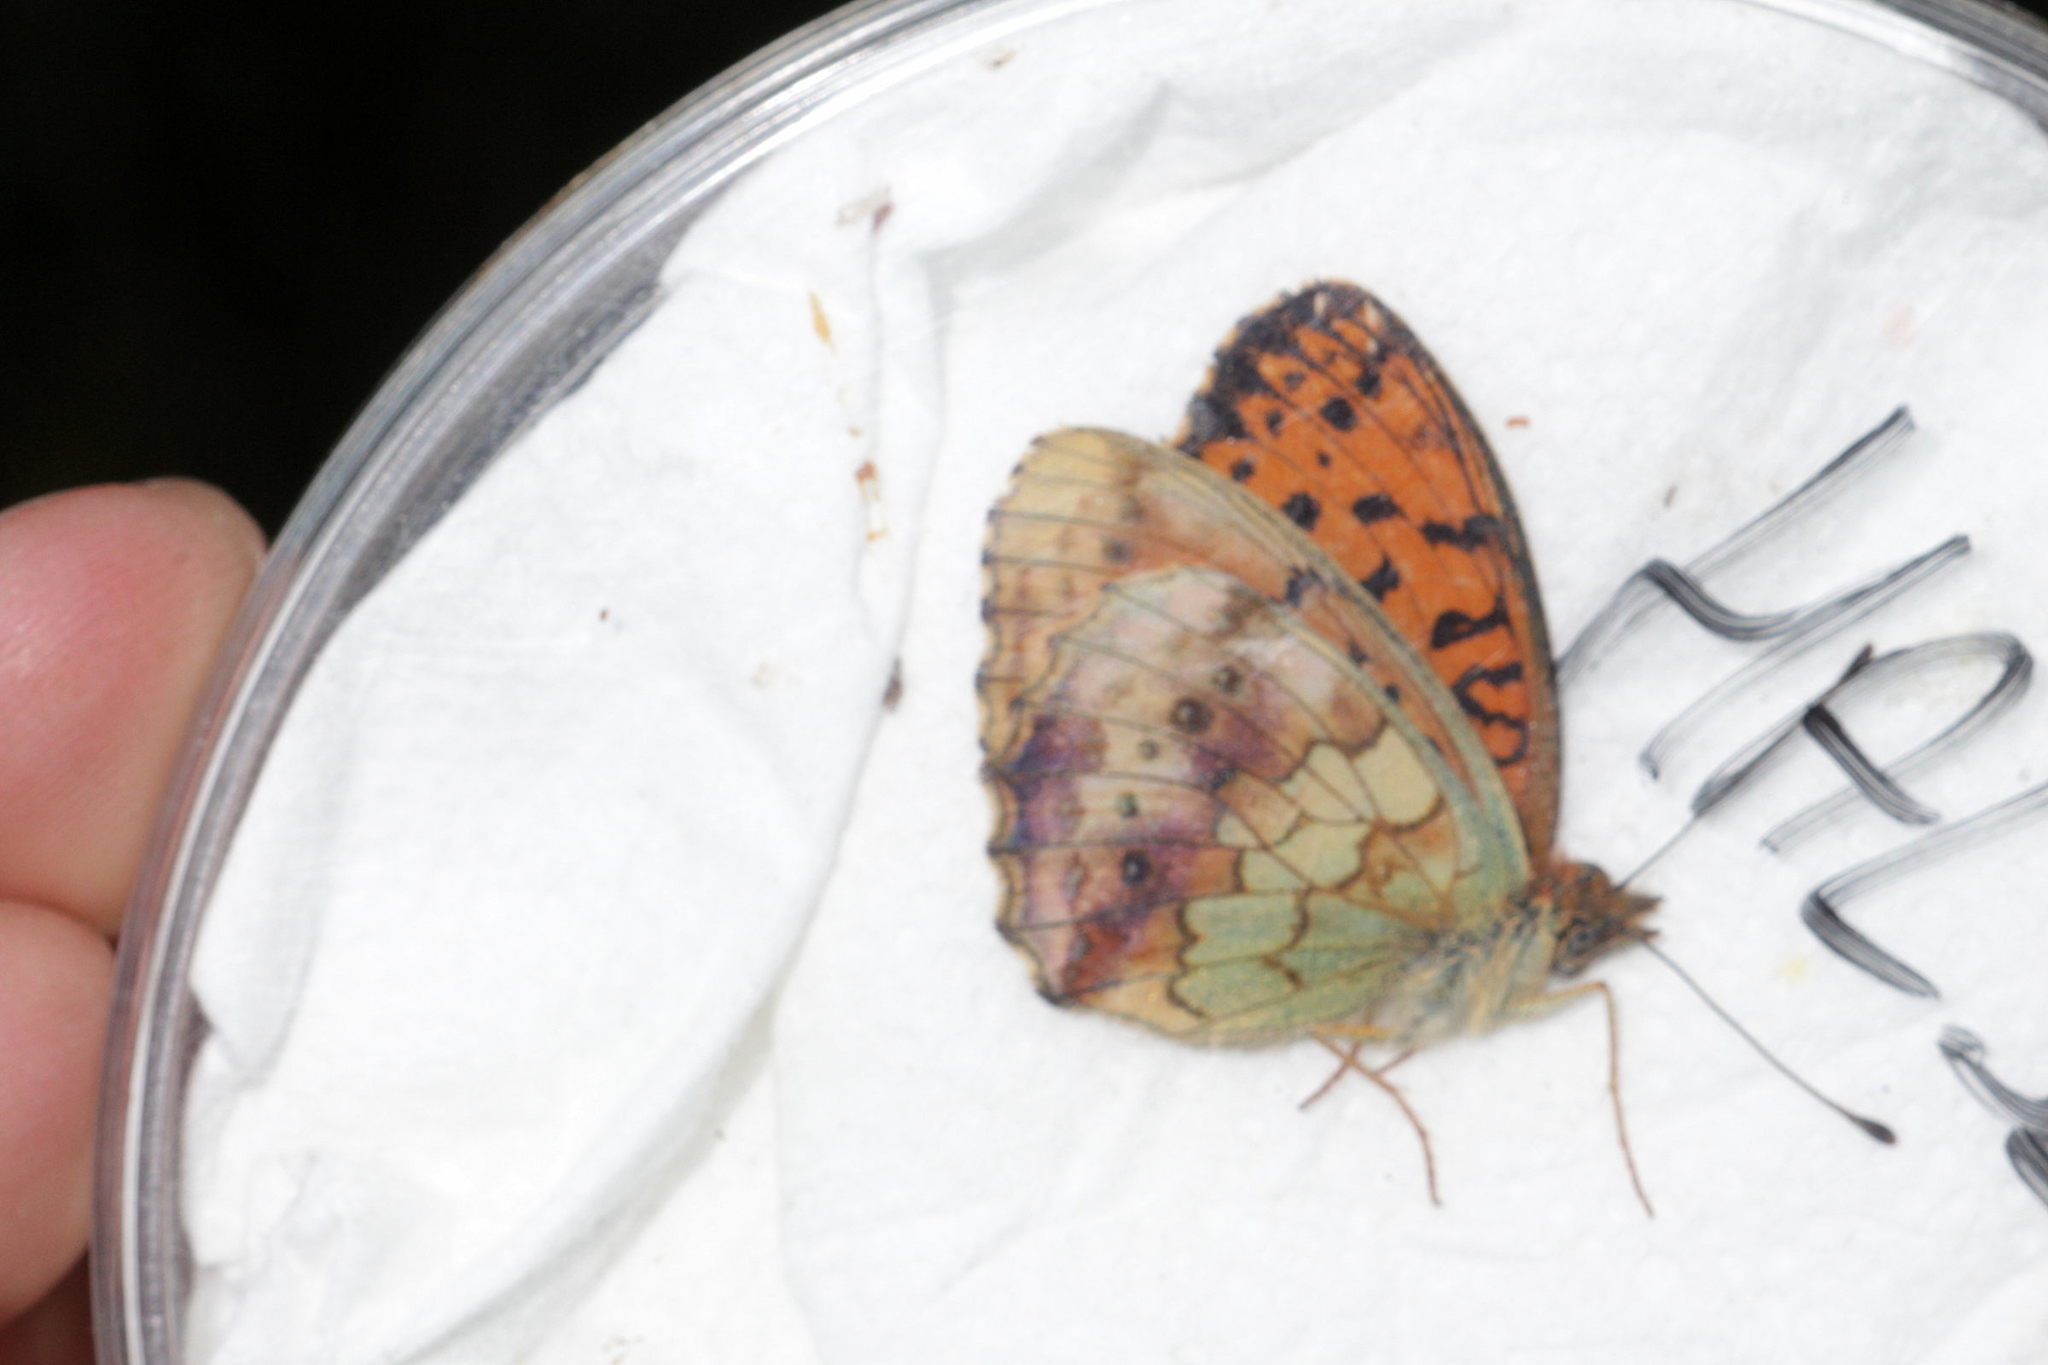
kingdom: Animalia
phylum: Arthropoda
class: Insecta
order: Lepidoptera
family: Nymphalidae
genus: Brenthis
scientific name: Brenthis daphne
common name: Marbled fritillary
